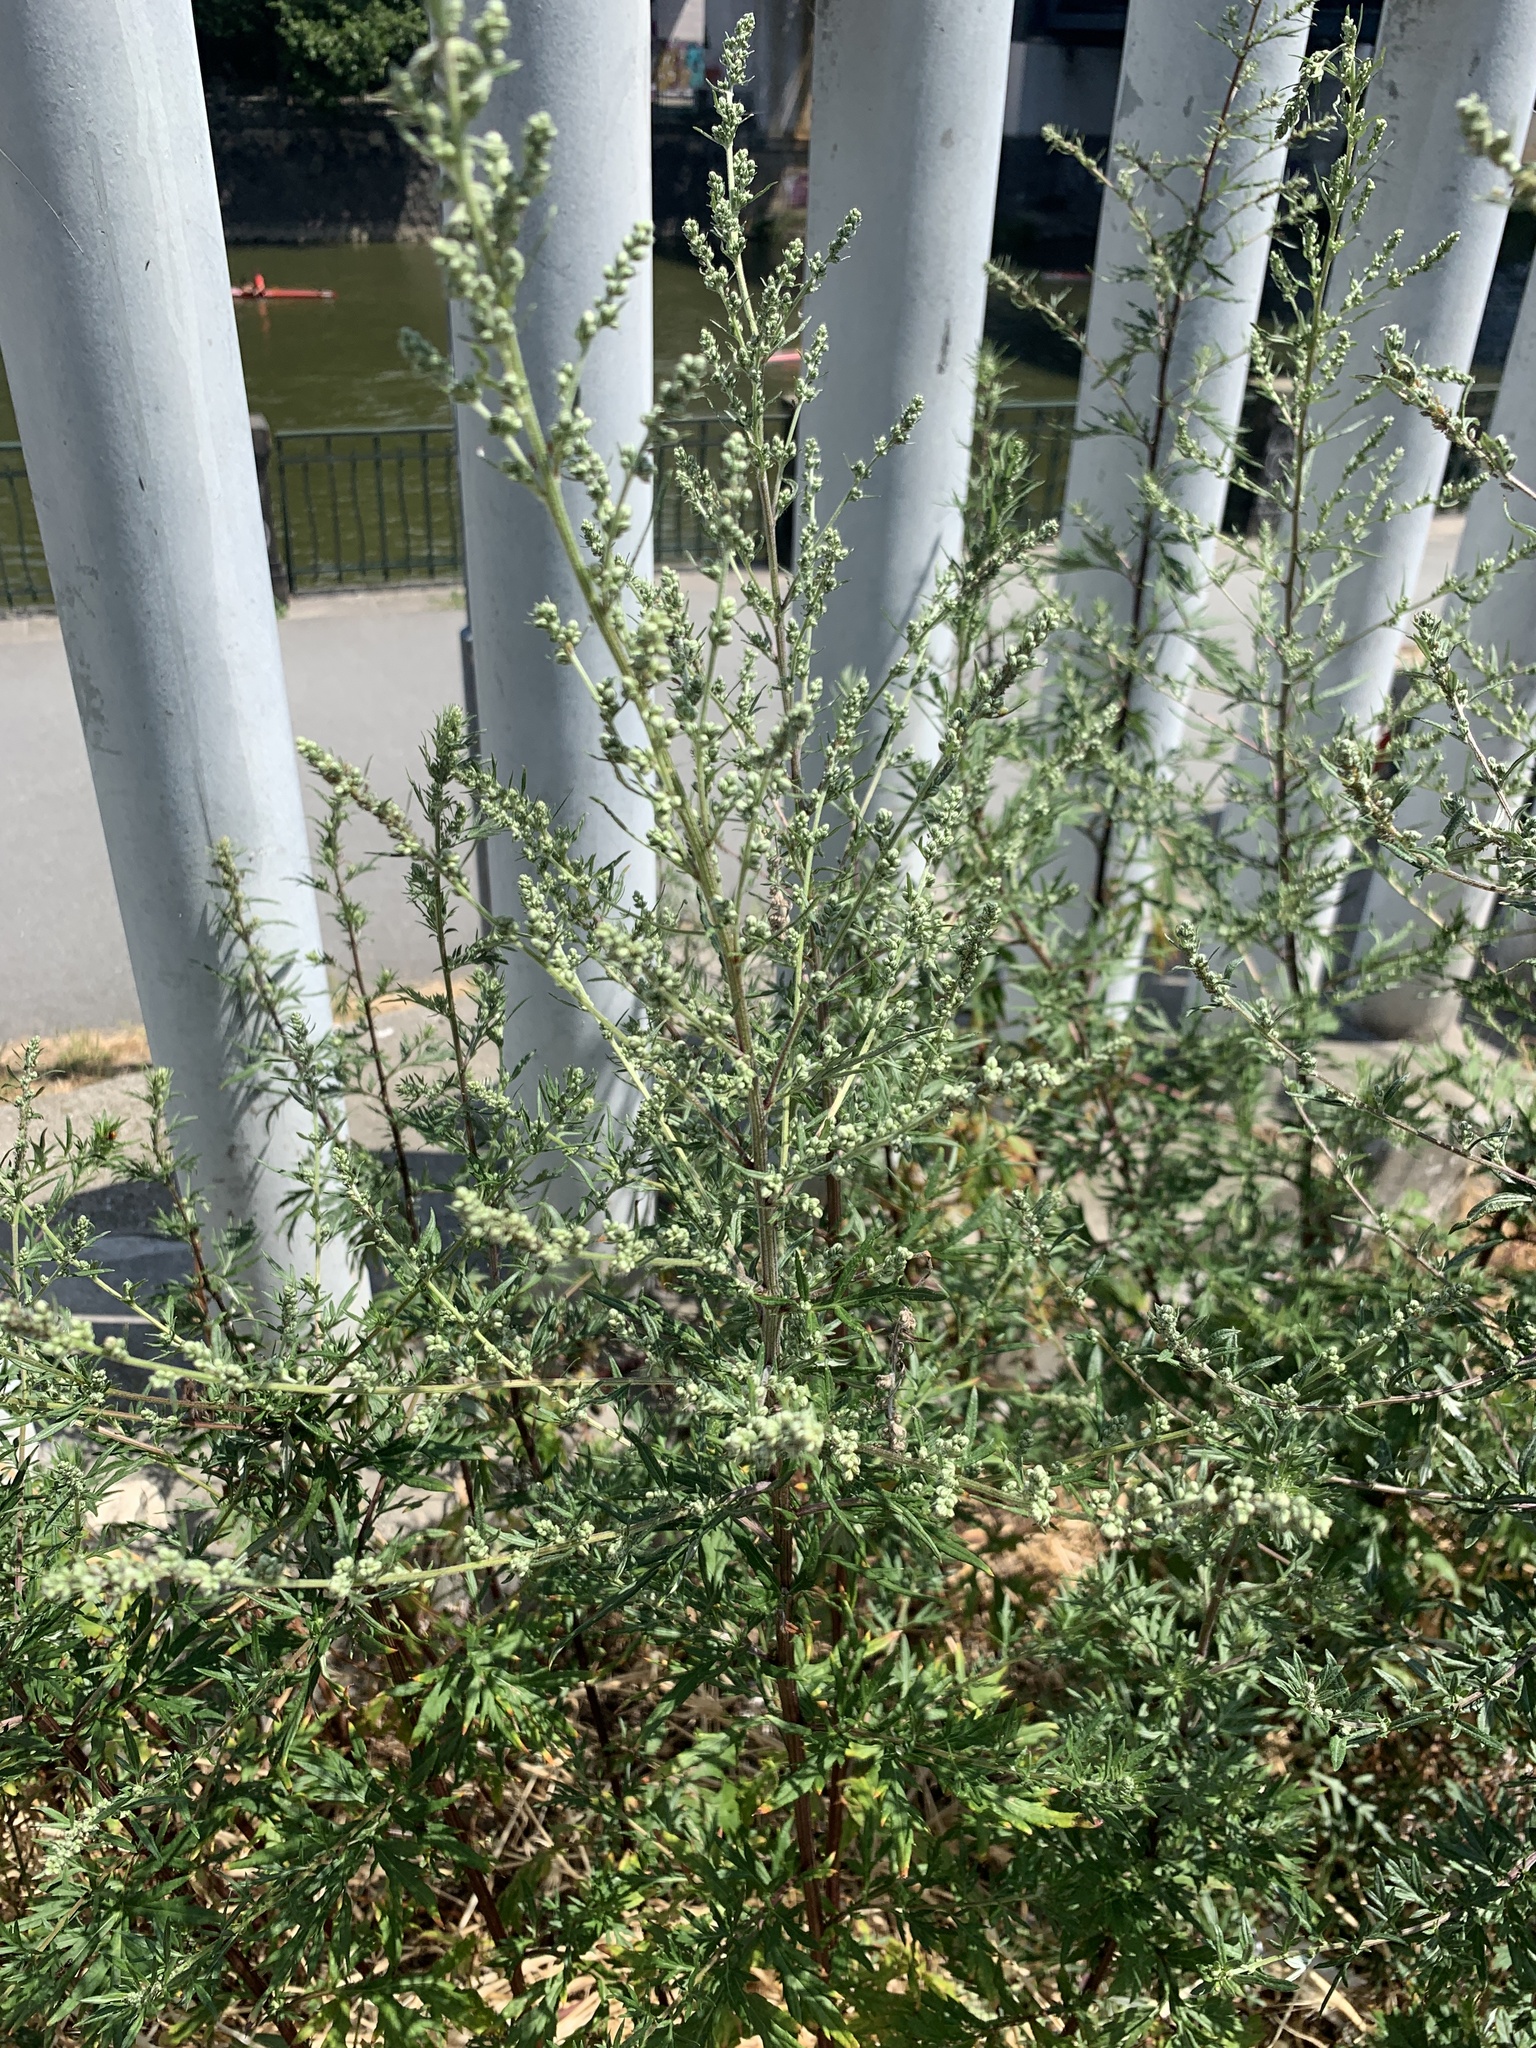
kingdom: Plantae
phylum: Tracheophyta
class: Magnoliopsida
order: Asterales
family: Asteraceae
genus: Artemisia
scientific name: Artemisia vulgaris
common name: Mugwort
